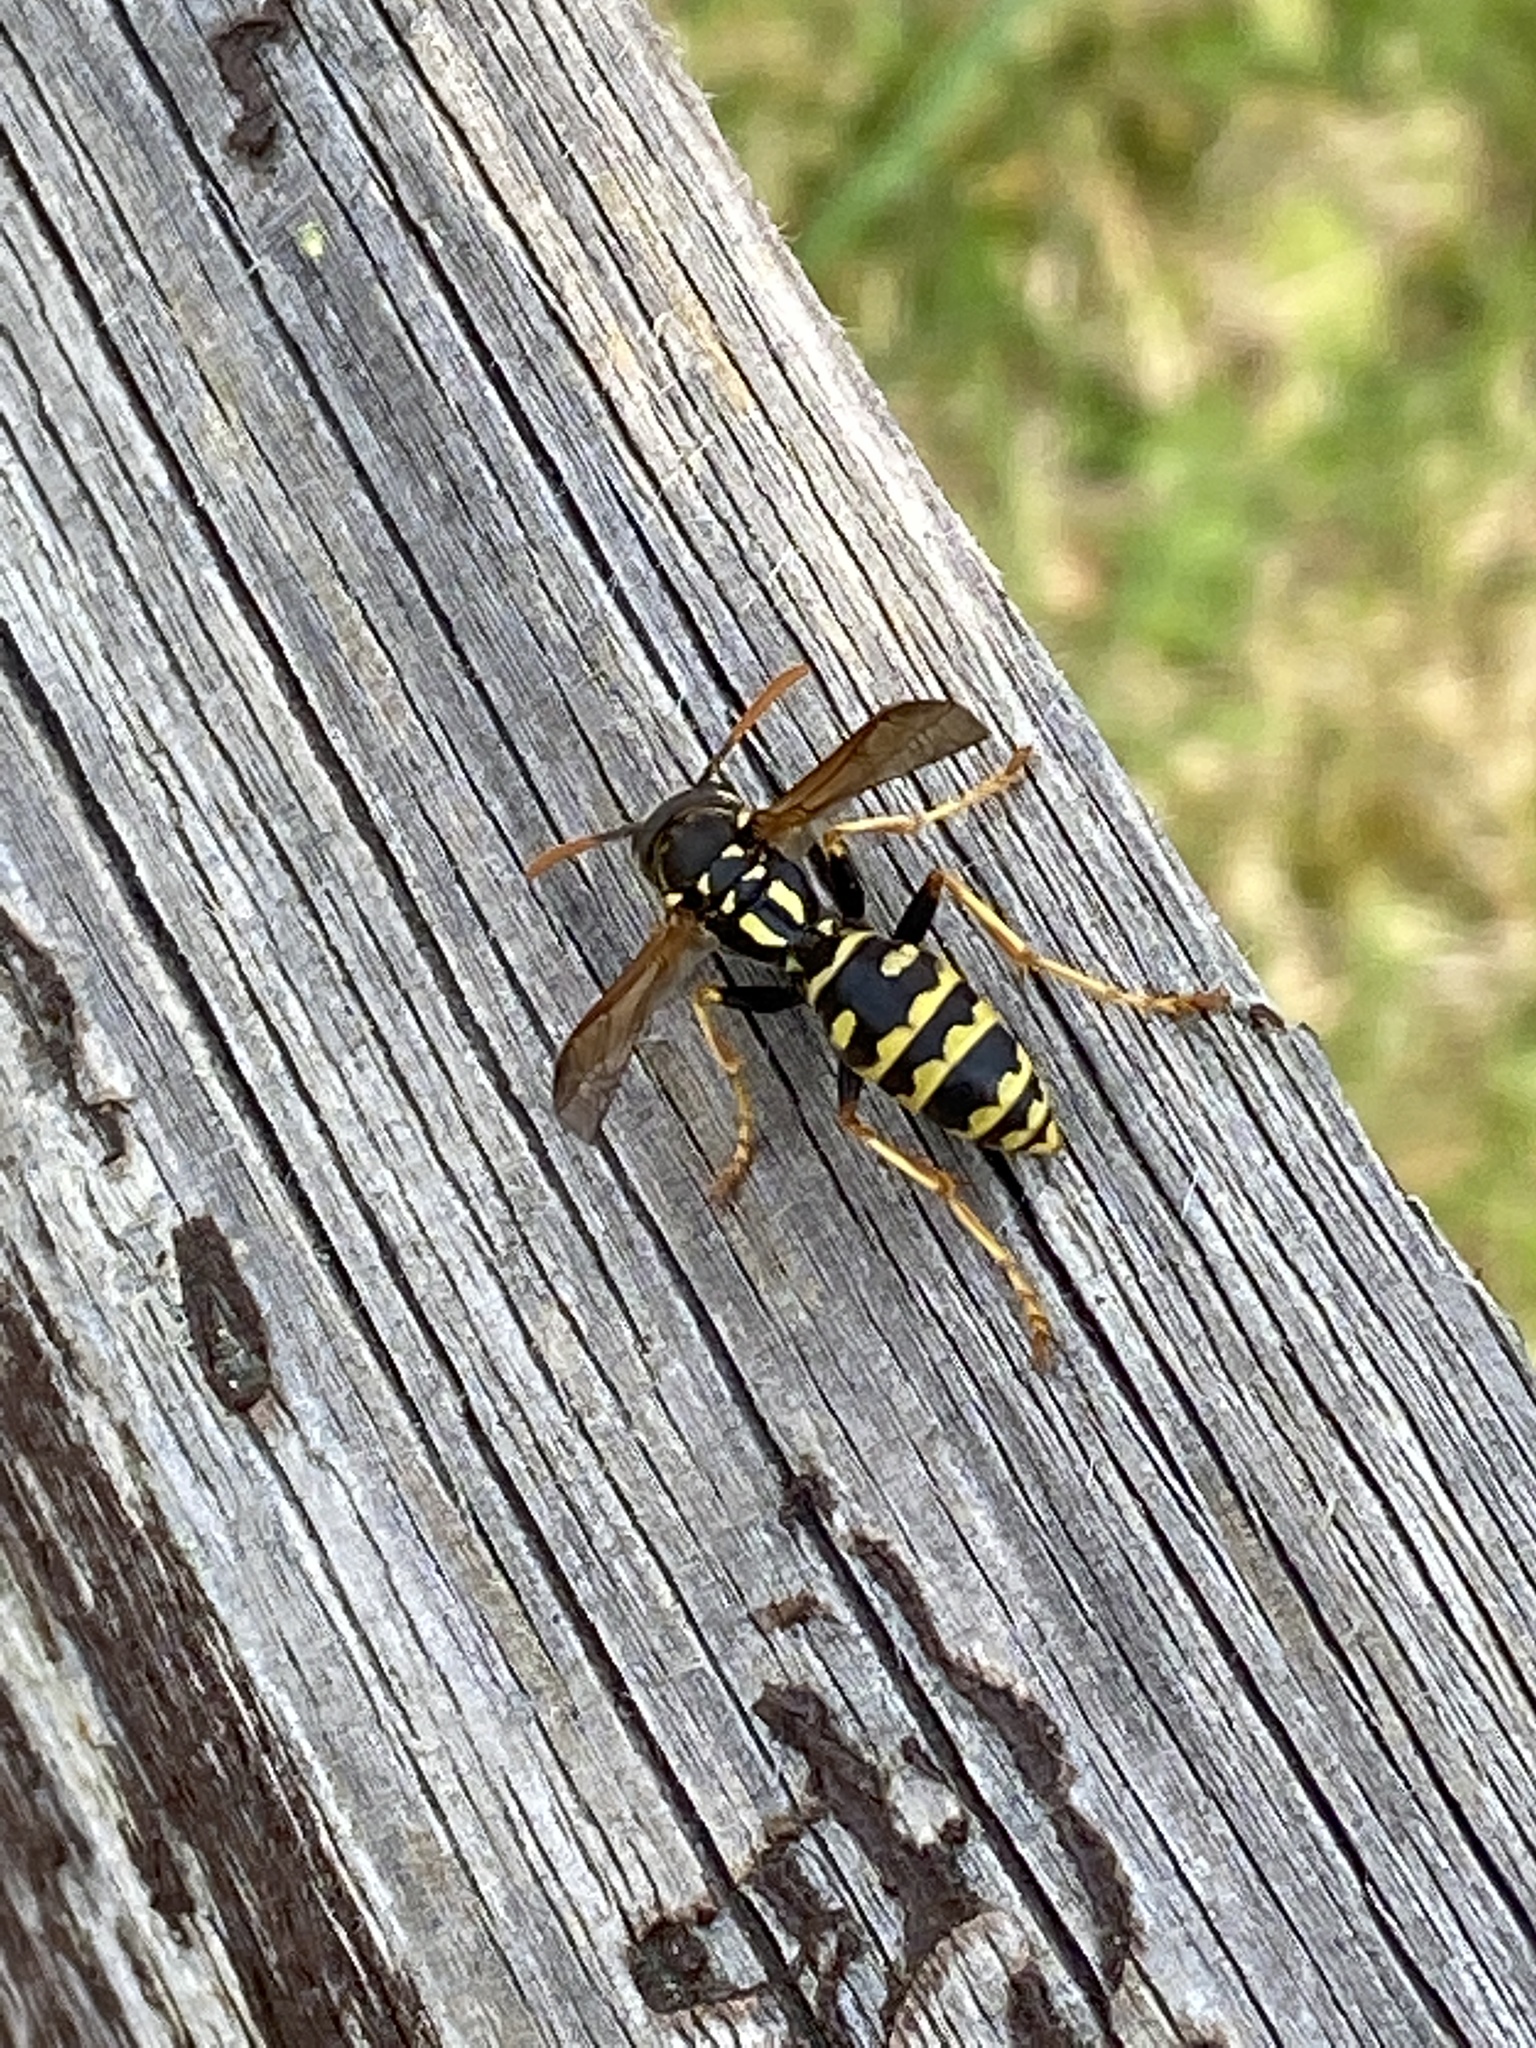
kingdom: Animalia
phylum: Arthropoda
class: Insecta
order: Hymenoptera
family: Eumenidae
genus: Polistes
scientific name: Polistes dominula
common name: Paper wasp
